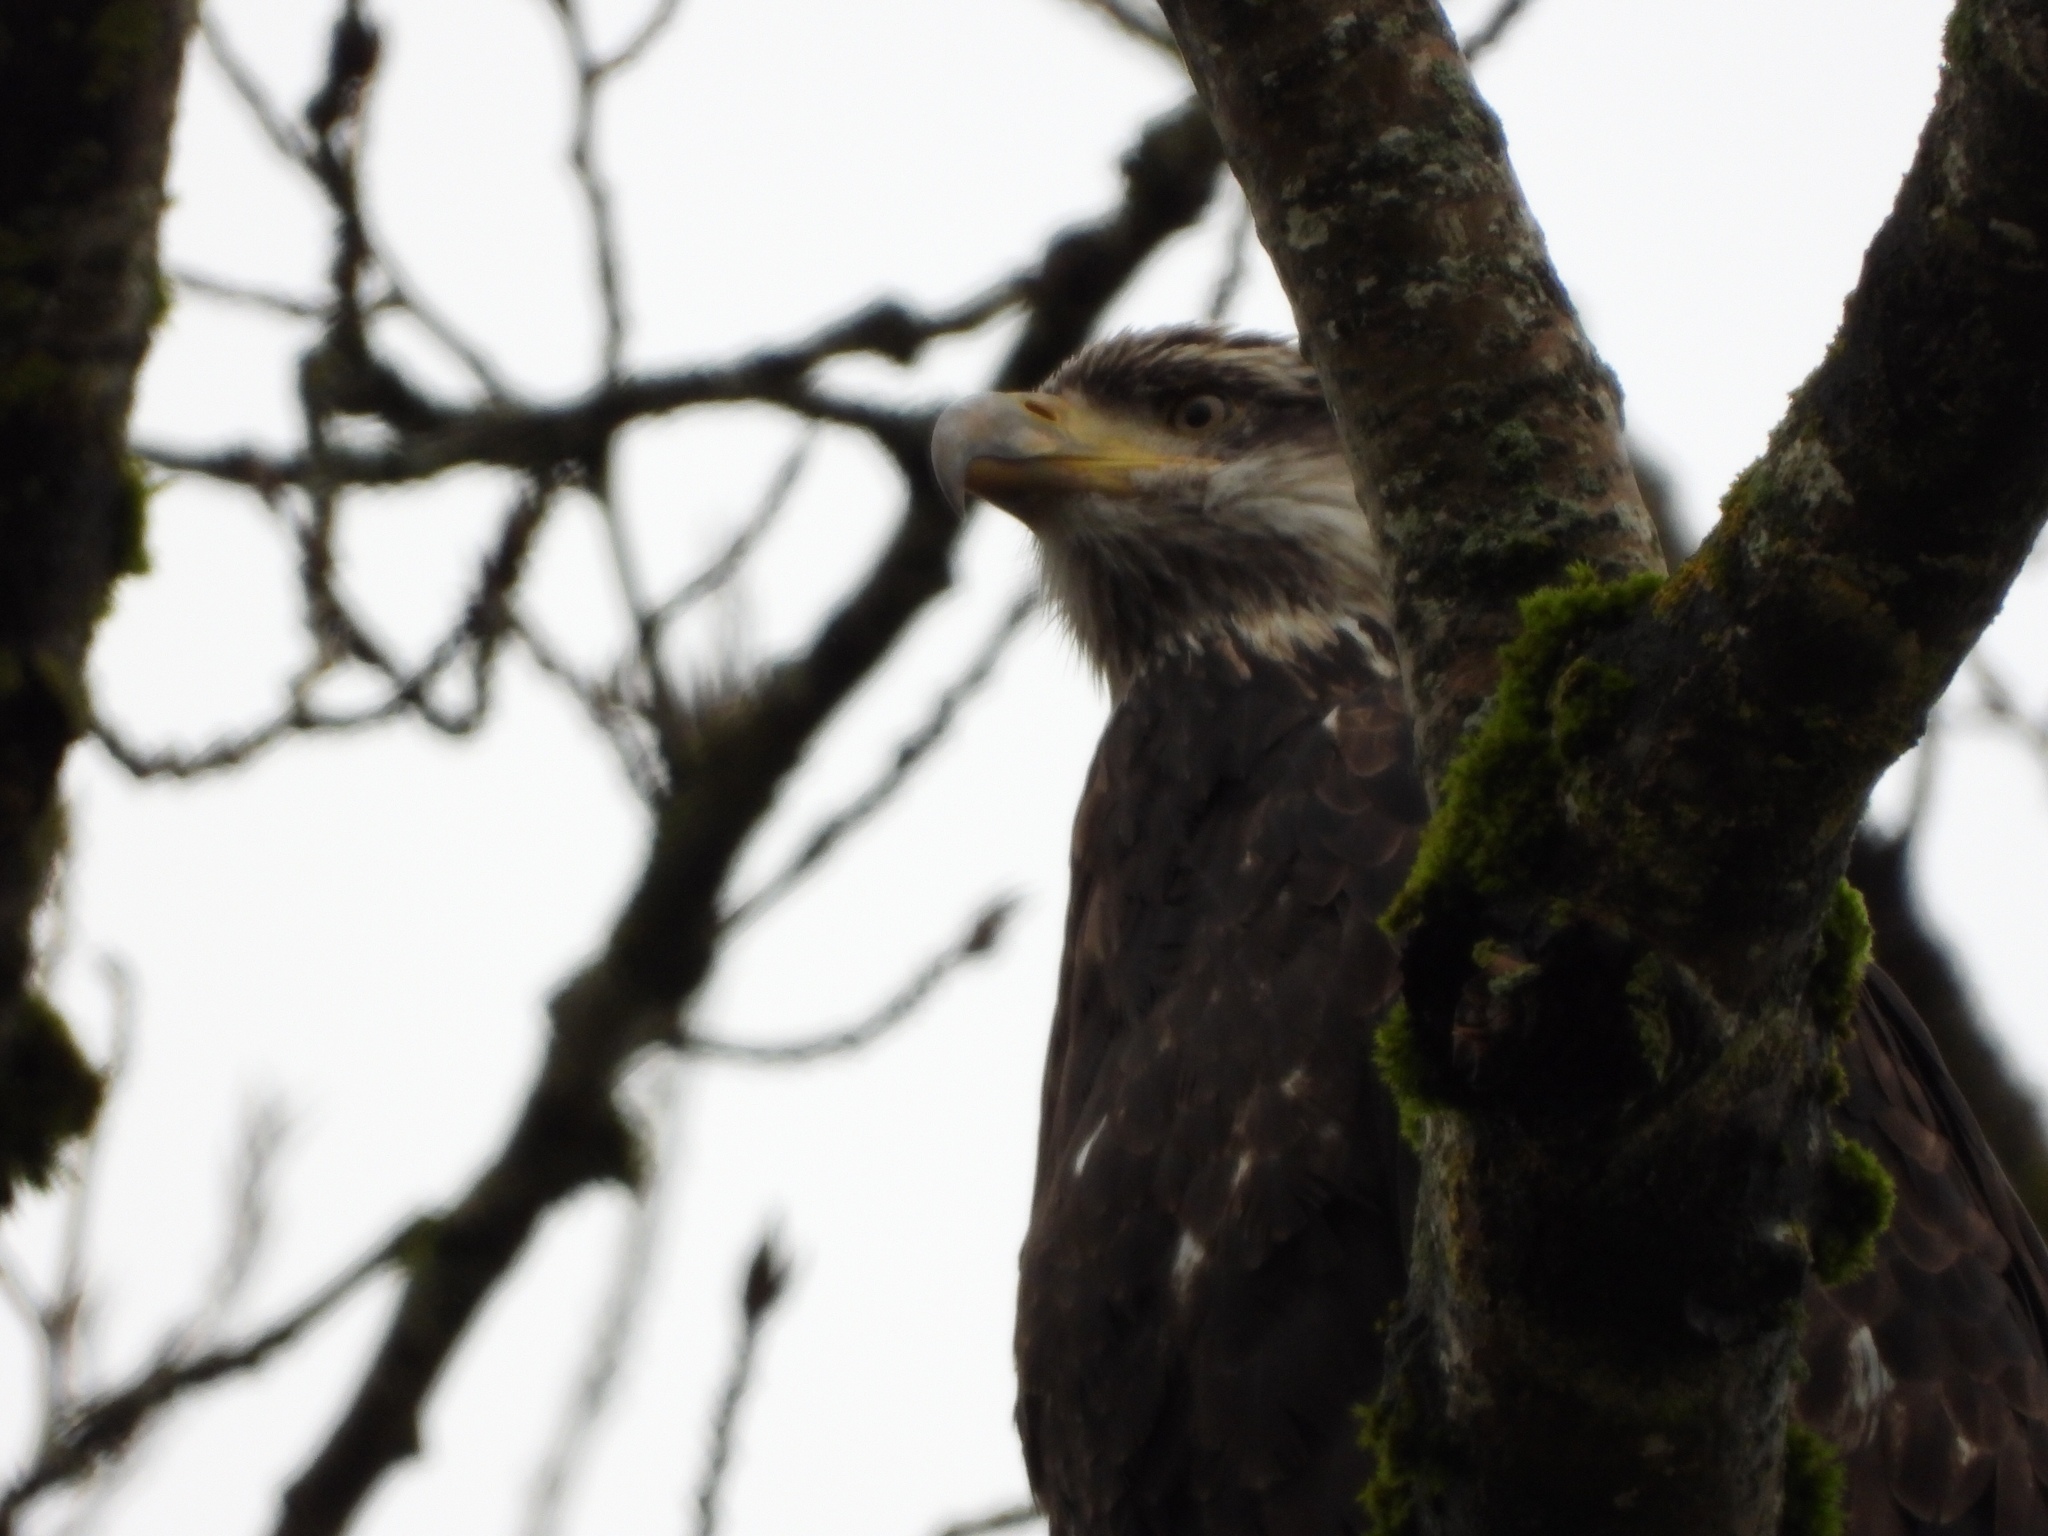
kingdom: Animalia
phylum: Chordata
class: Aves
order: Accipitriformes
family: Accipitridae
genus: Haliaeetus
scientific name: Haliaeetus leucocephalus
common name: Bald eagle
